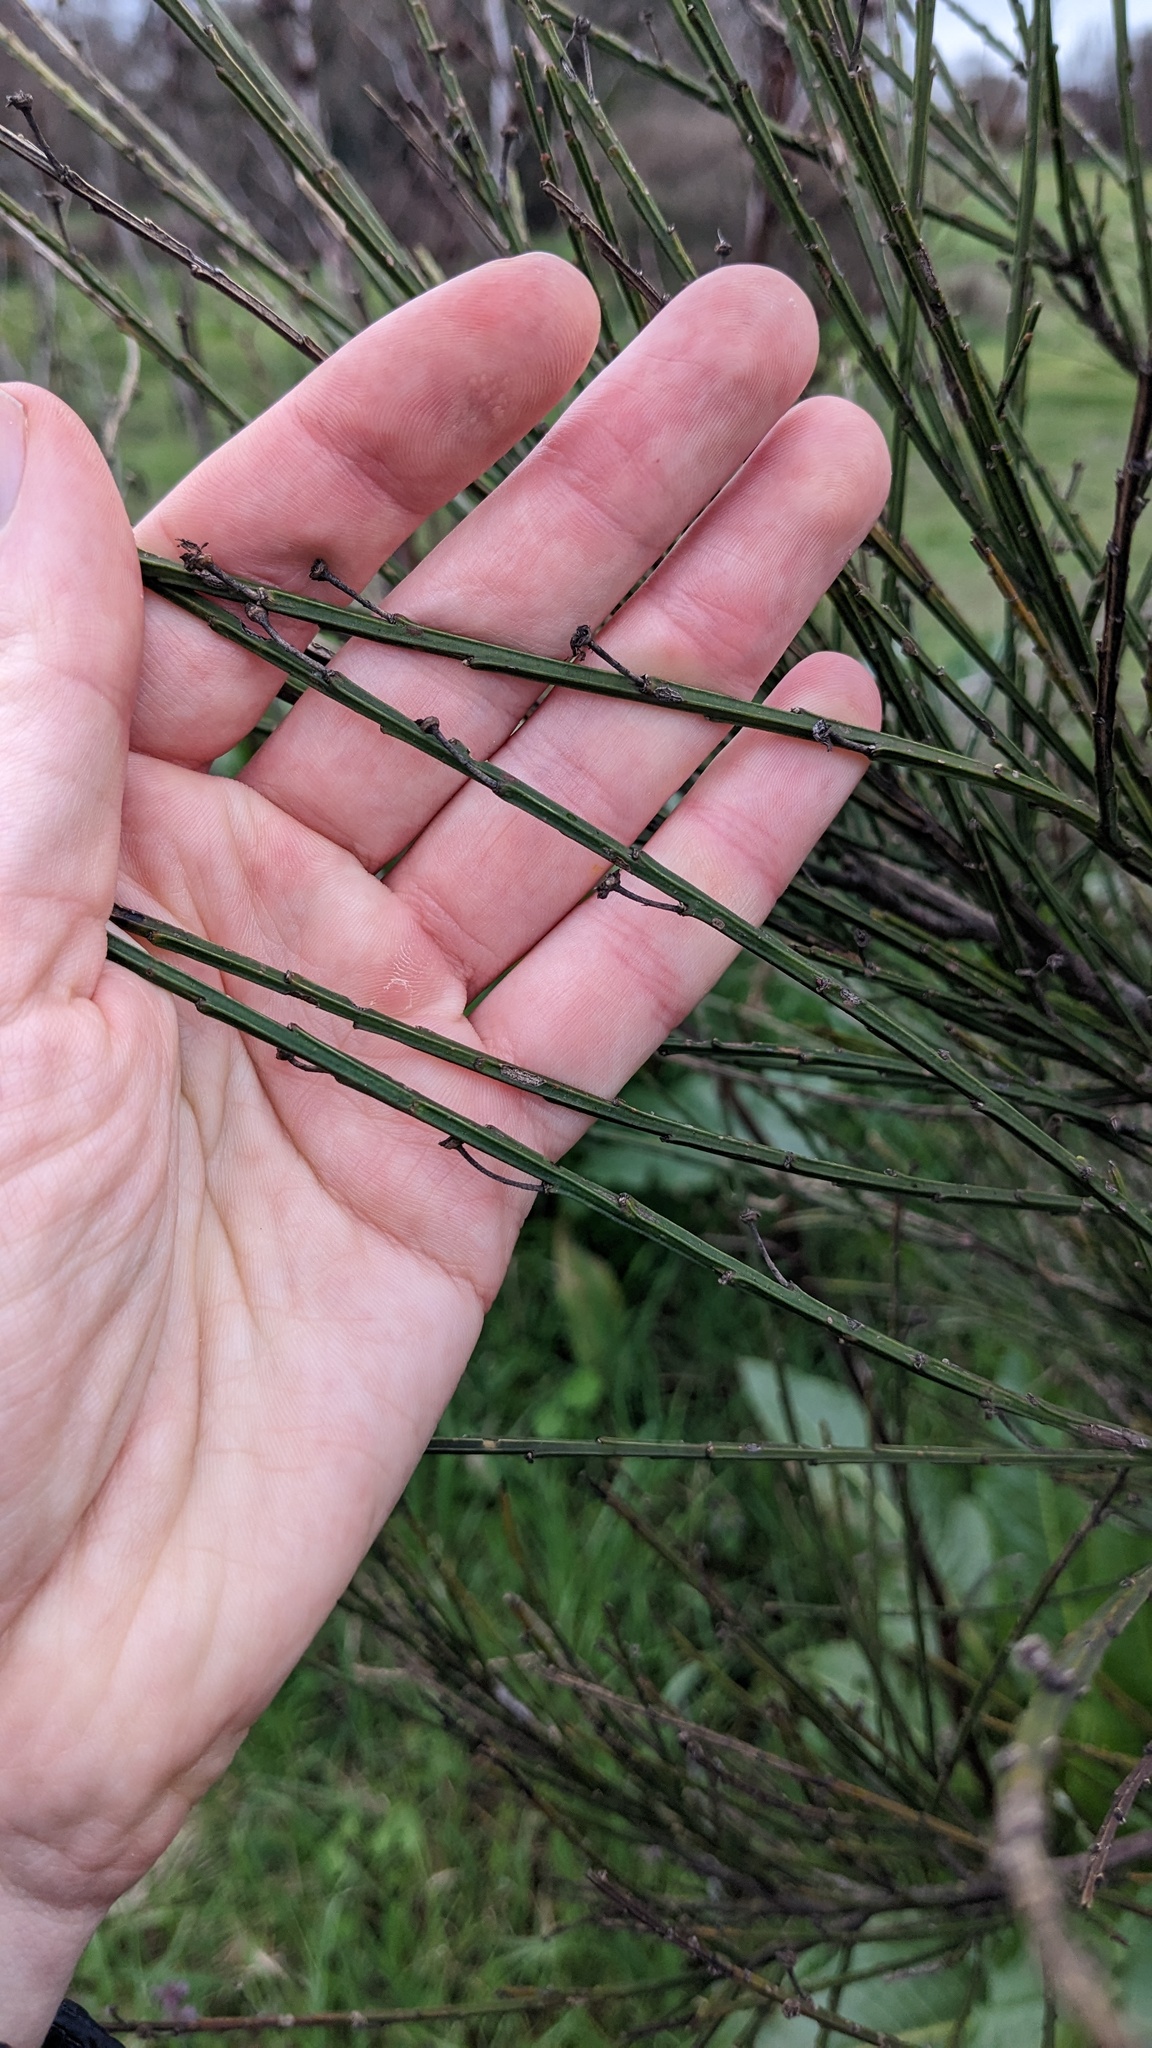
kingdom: Plantae
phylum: Tracheophyta
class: Magnoliopsida
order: Fabales
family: Fabaceae
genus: Cytisus
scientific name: Cytisus scoparius
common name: Scotch broom
